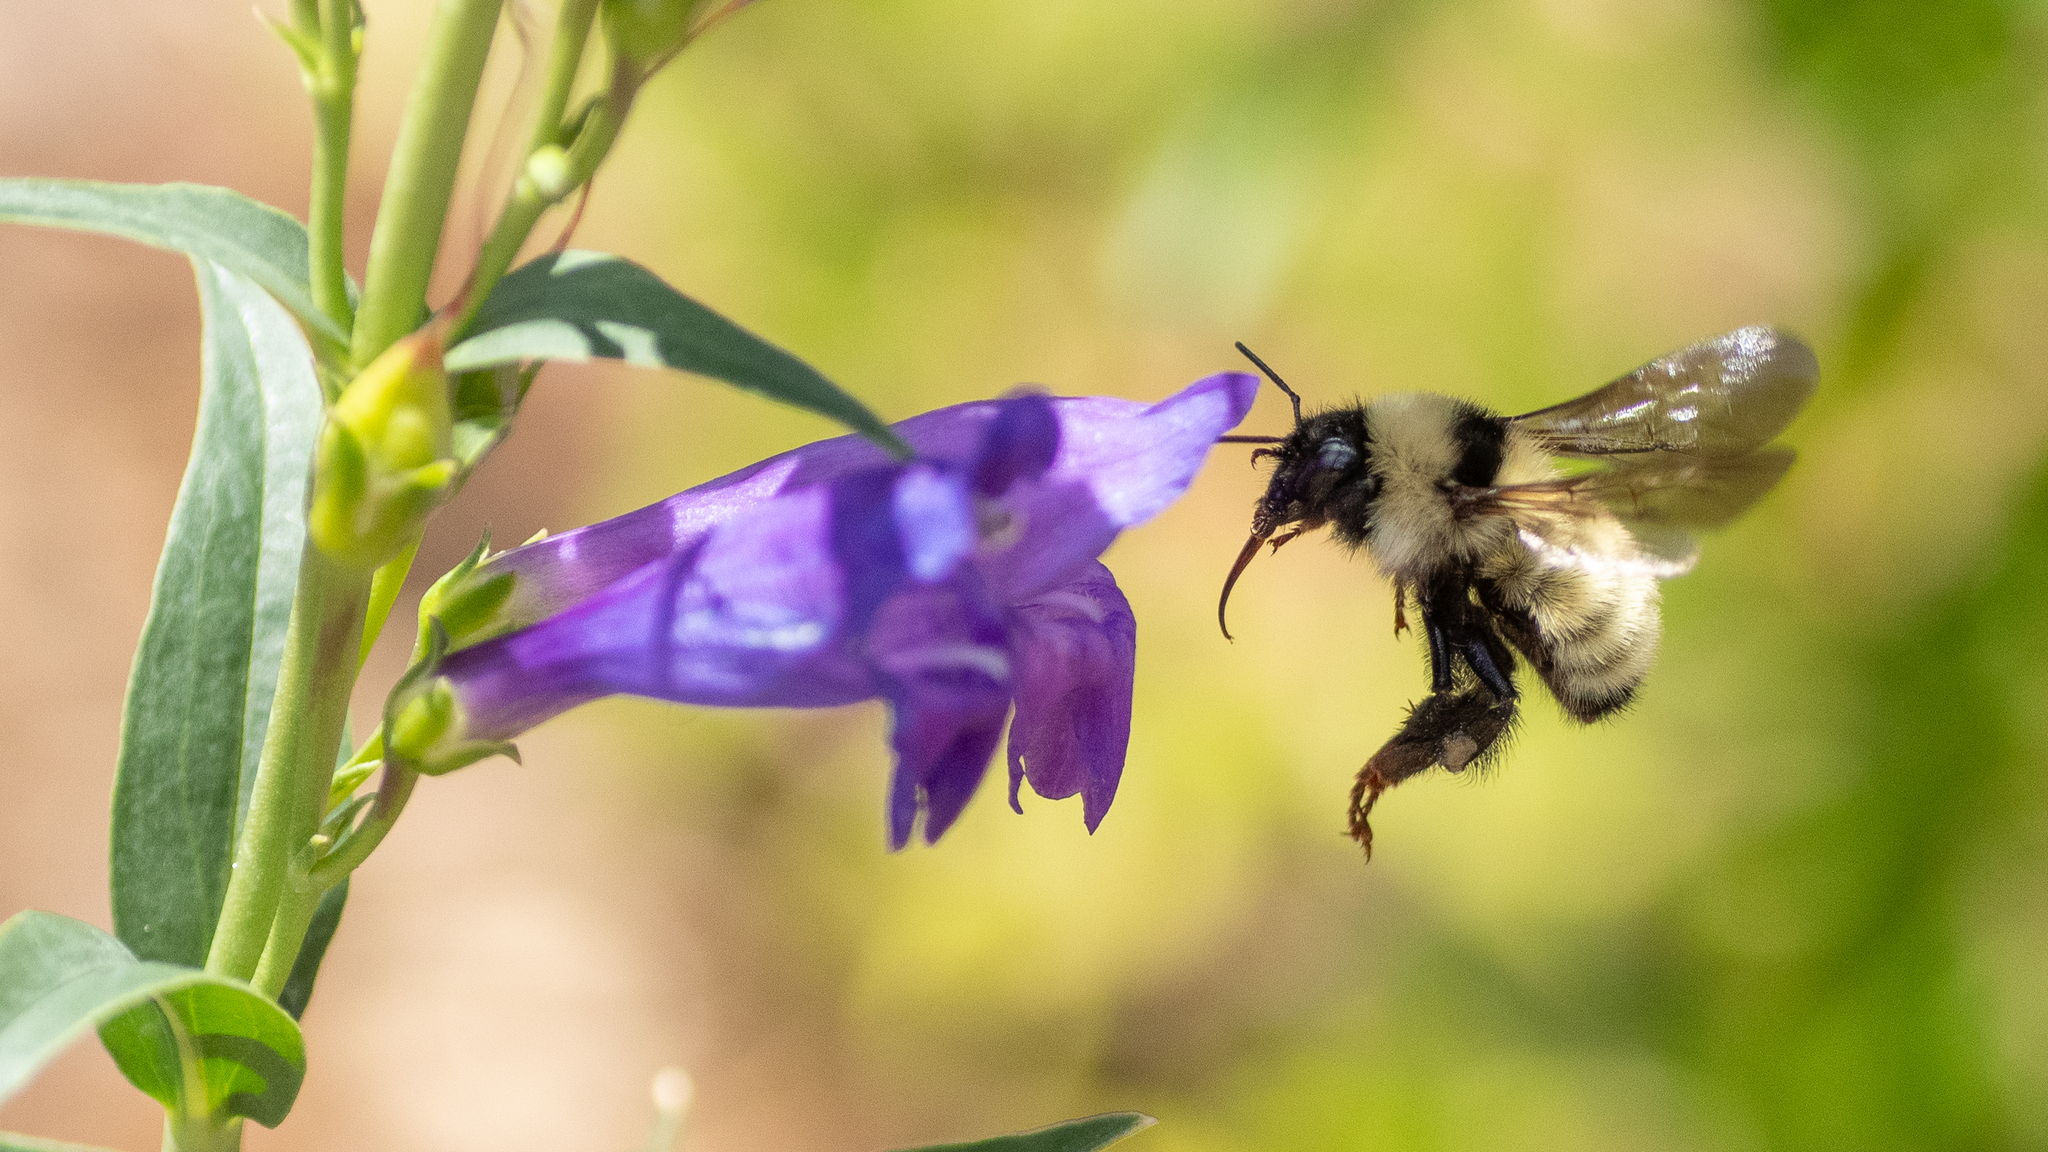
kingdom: Animalia
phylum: Arthropoda
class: Insecta
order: Hymenoptera
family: Apidae
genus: Bombus
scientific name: Bombus fervidus
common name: Yellow bumble bee
